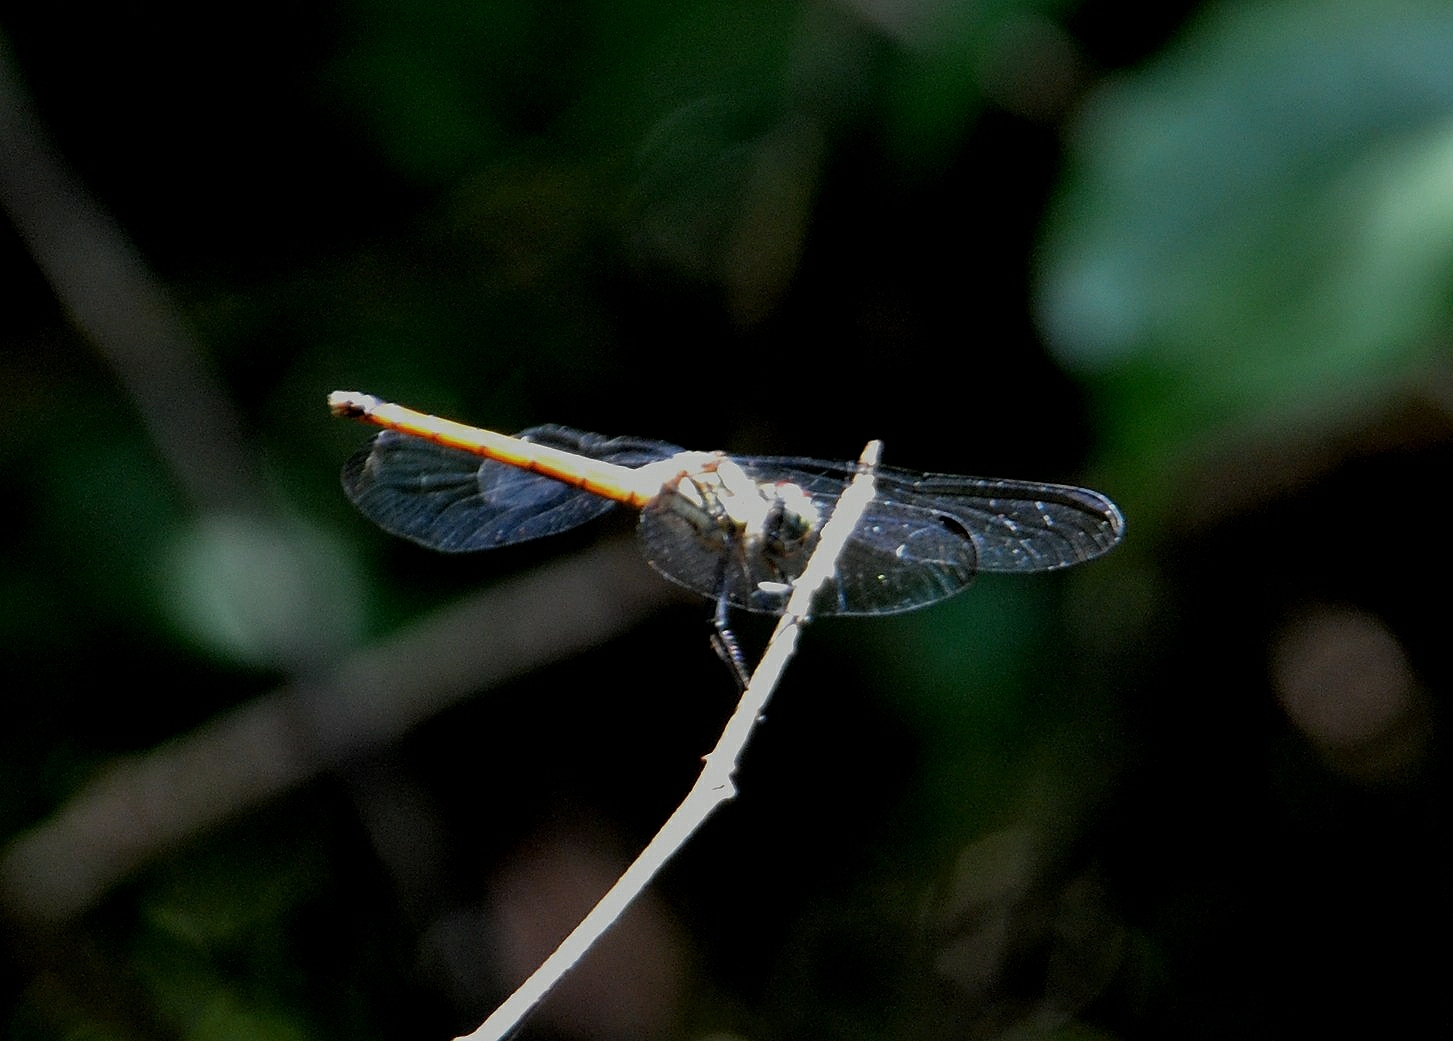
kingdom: Animalia
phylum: Arthropoda
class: Insecta
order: Odonata
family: Libellulidae
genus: Lathrecista
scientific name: Lathrecista asiatica
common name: Scarlet grenadier
